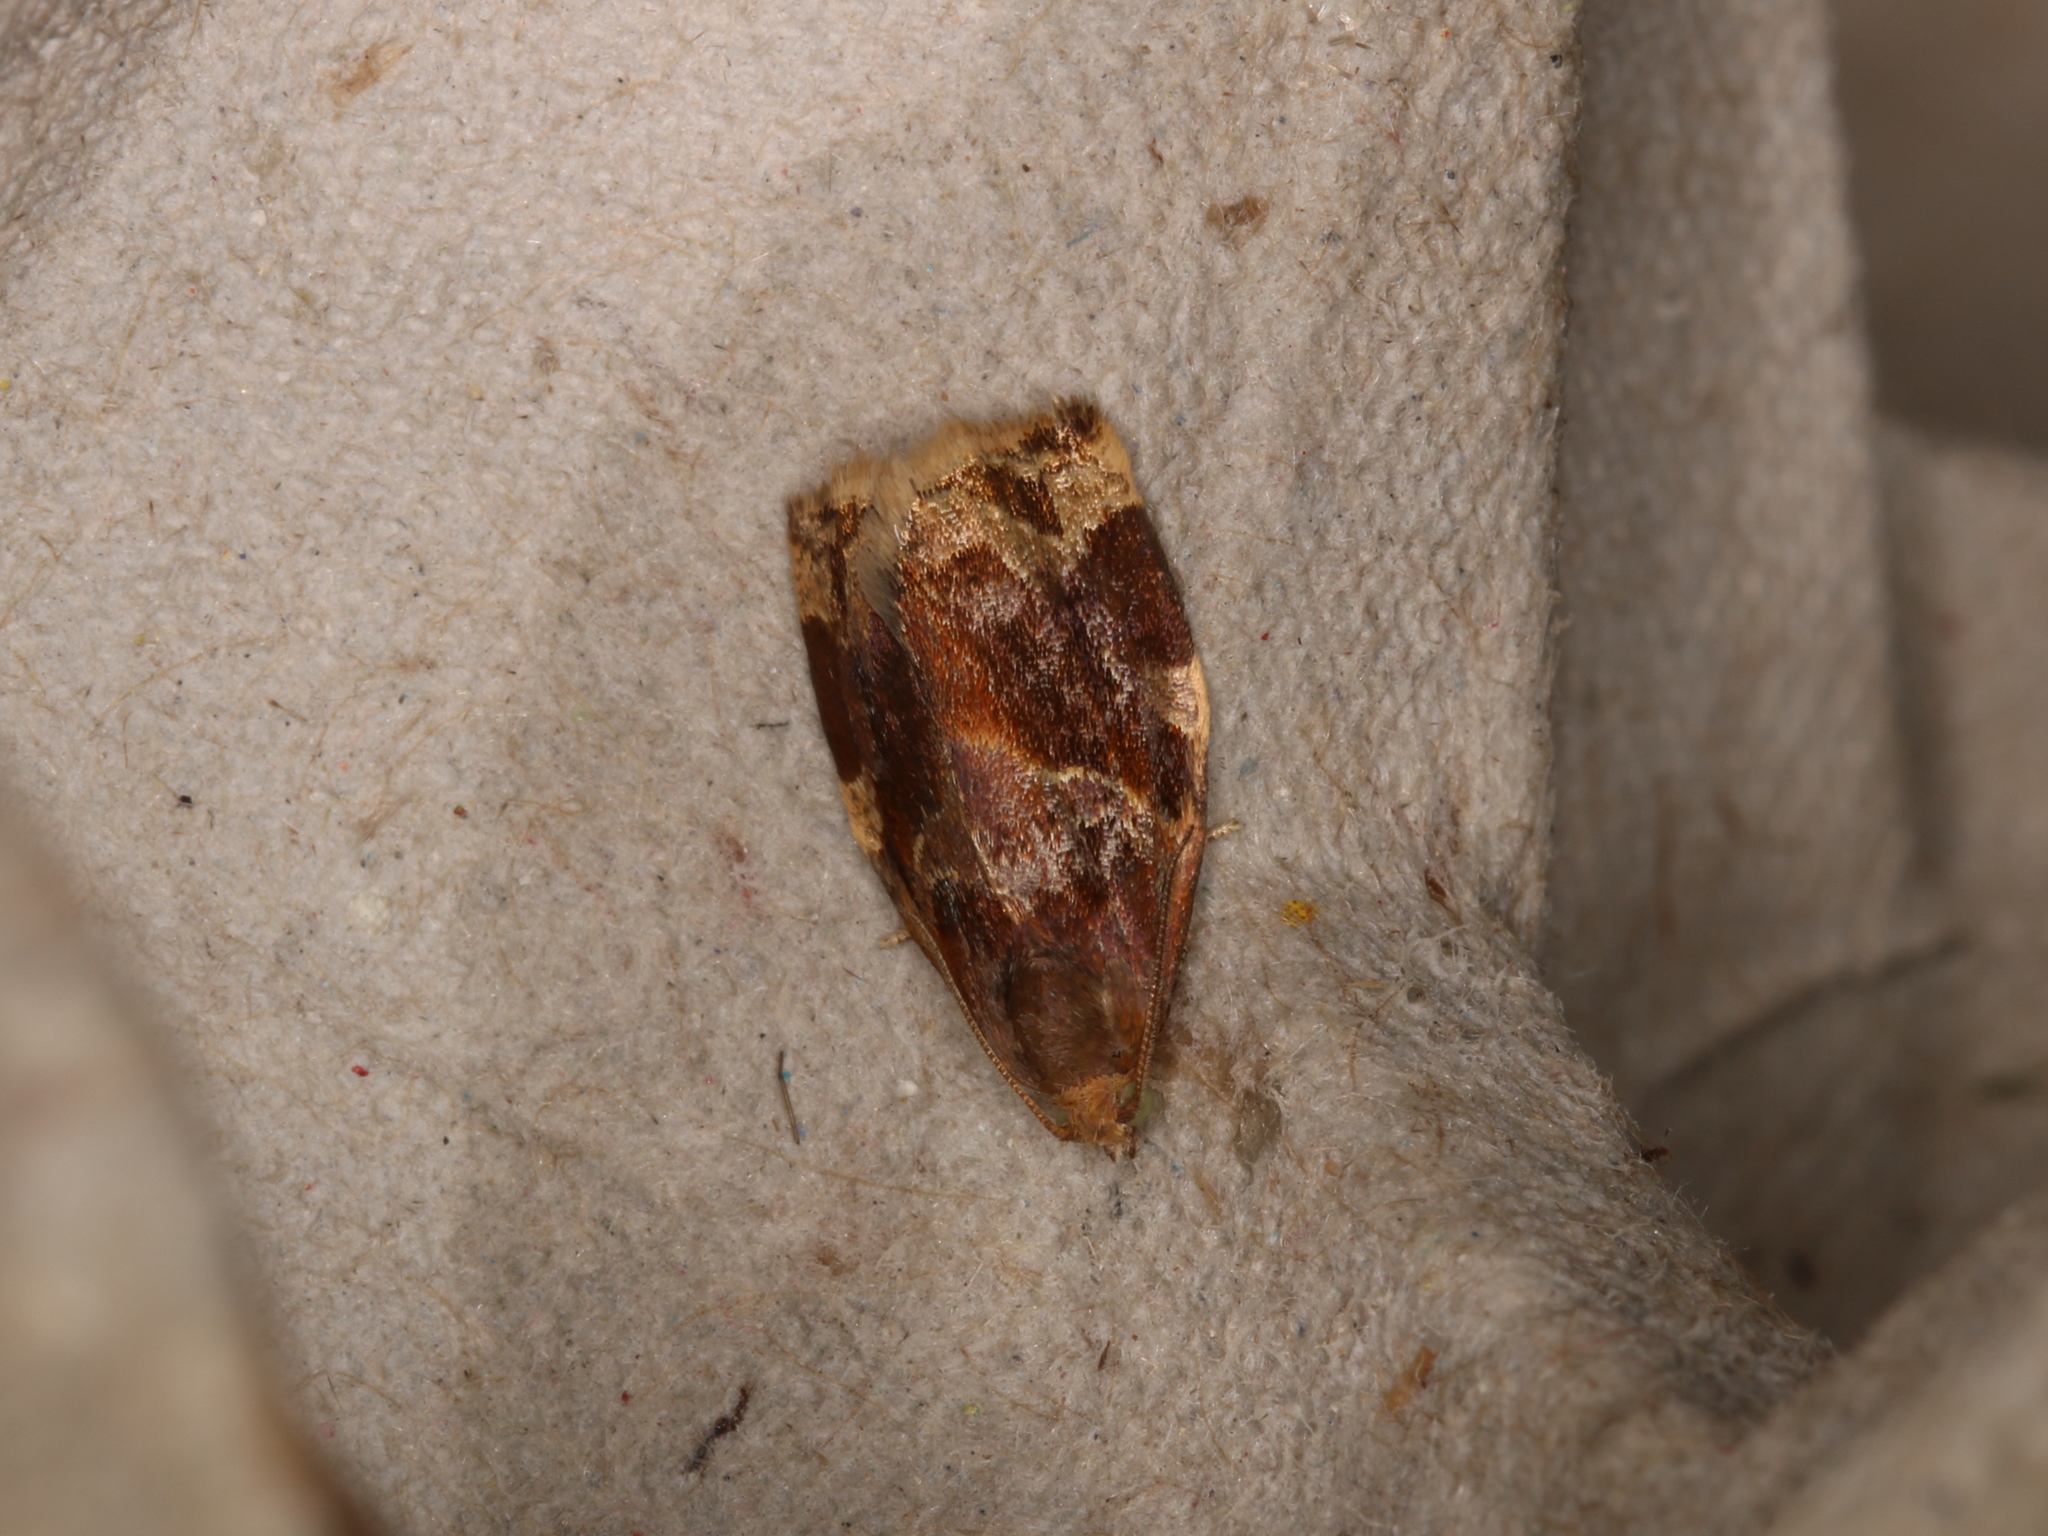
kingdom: Animalia
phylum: Arthropoda
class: Insecta
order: Lepidoptera
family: Tortricidae
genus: Archips
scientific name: Archips xylosteana
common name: Variegated golden tortrix
